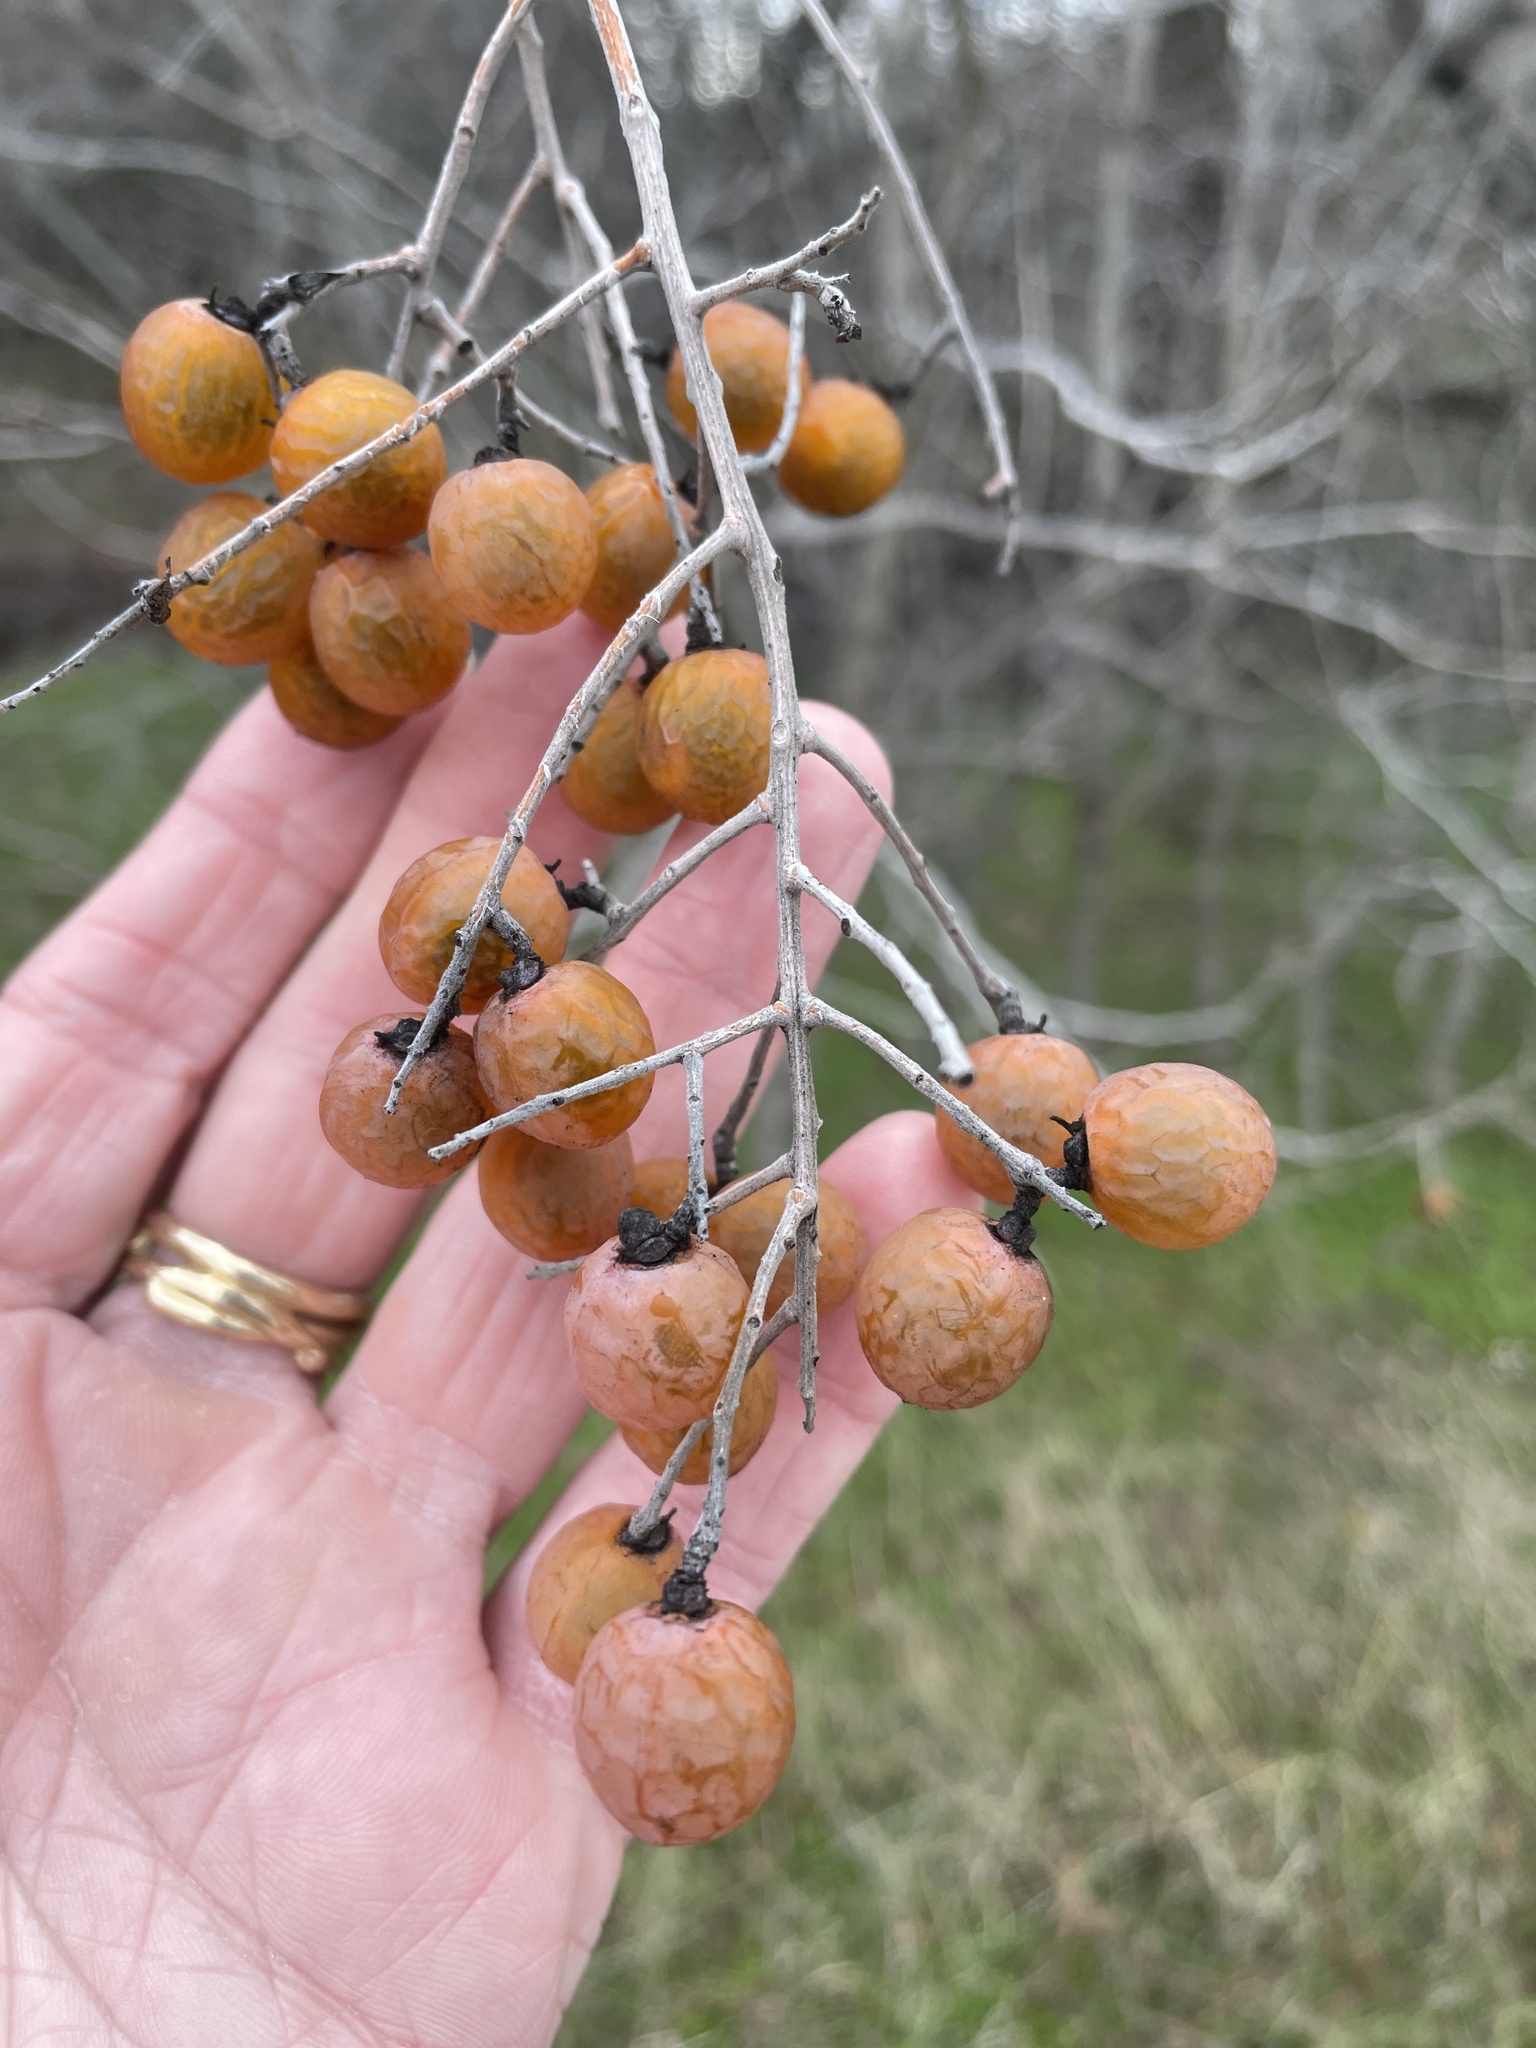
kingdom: Plantae
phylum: Tracheophyta
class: Magnoliopsida
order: Sapindales
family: Sapindaceae
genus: Sapindus
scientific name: Sapindus drummondii
